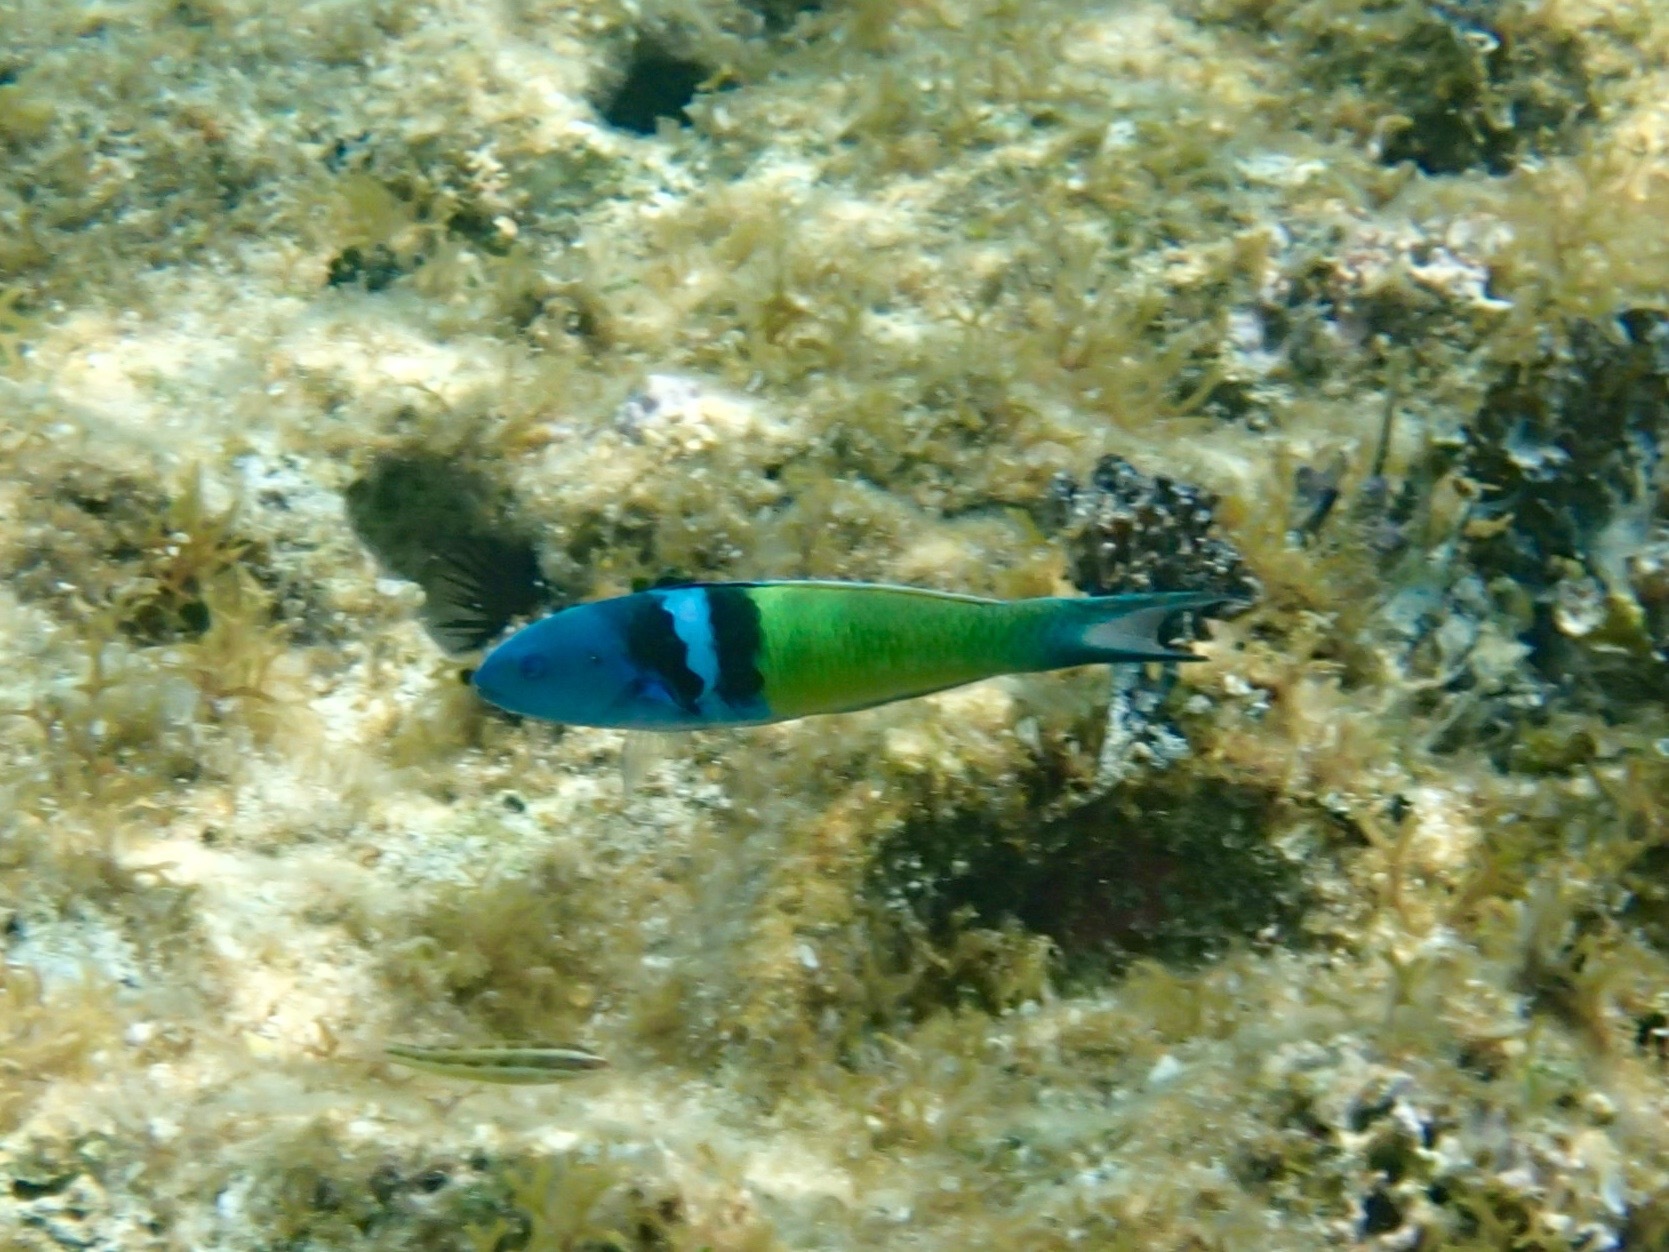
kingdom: Animalia
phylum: Chordata
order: Perciformes
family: Labridae
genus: Thalassoma
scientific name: Thalassoma bifasciatum
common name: Bluehead wrasse
